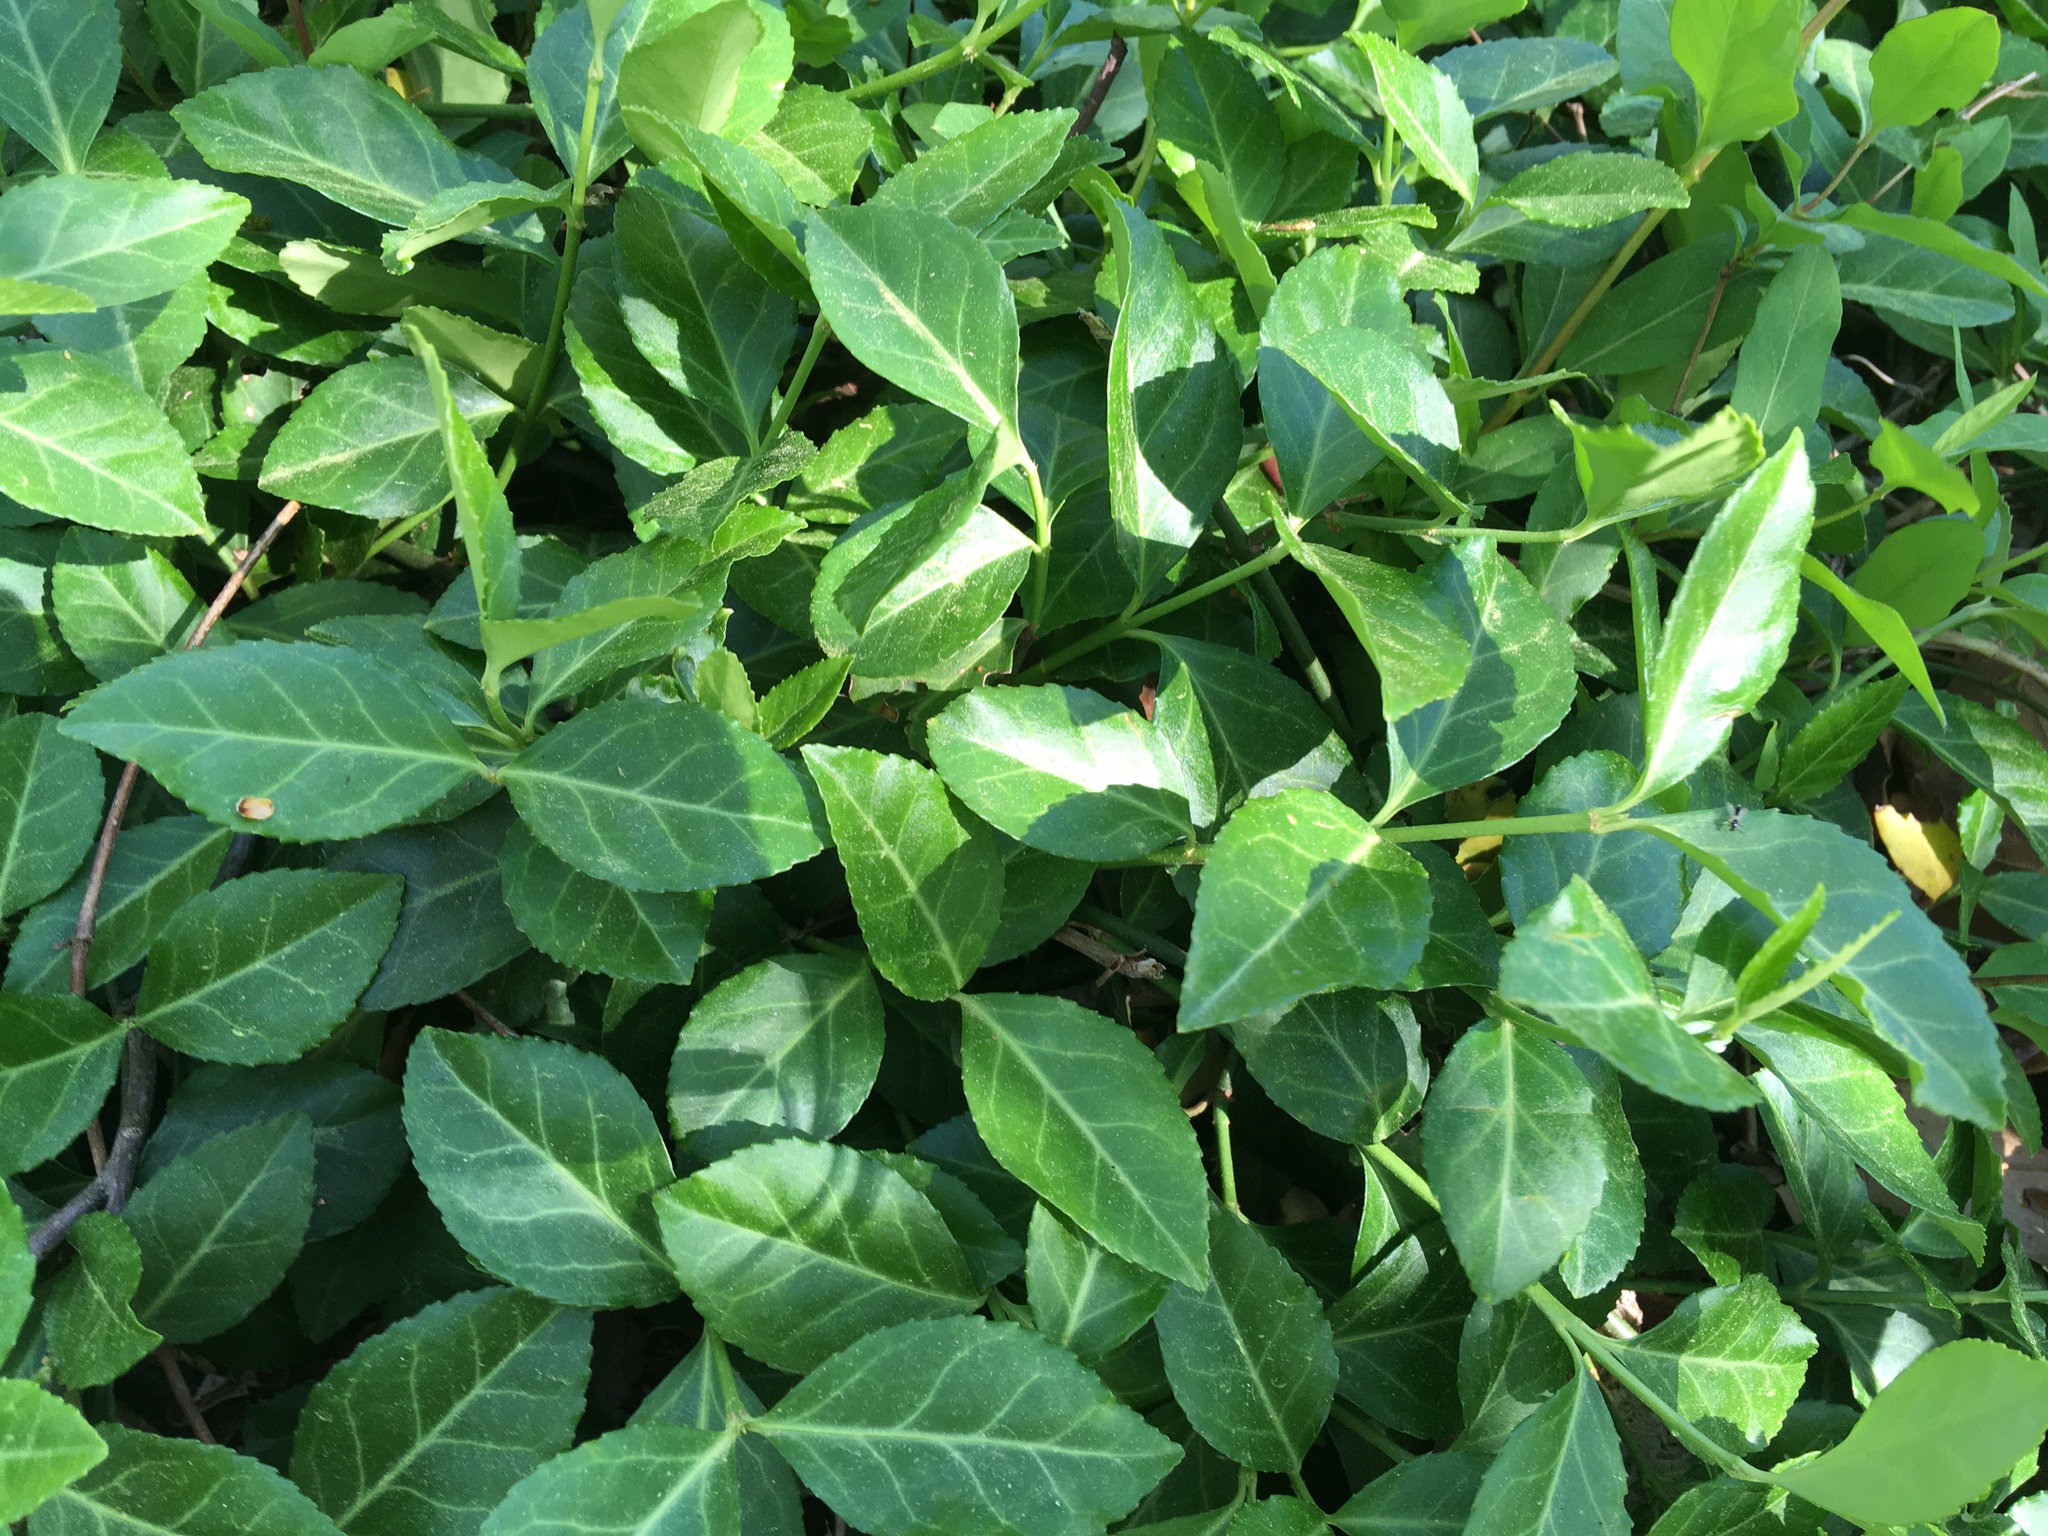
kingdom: Plantae
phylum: Tracheophyta
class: Magnoliopsida
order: Celastrales
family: Celastraceae
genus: Euonymus
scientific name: Euonymus fortunei
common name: Climbing euonymus
